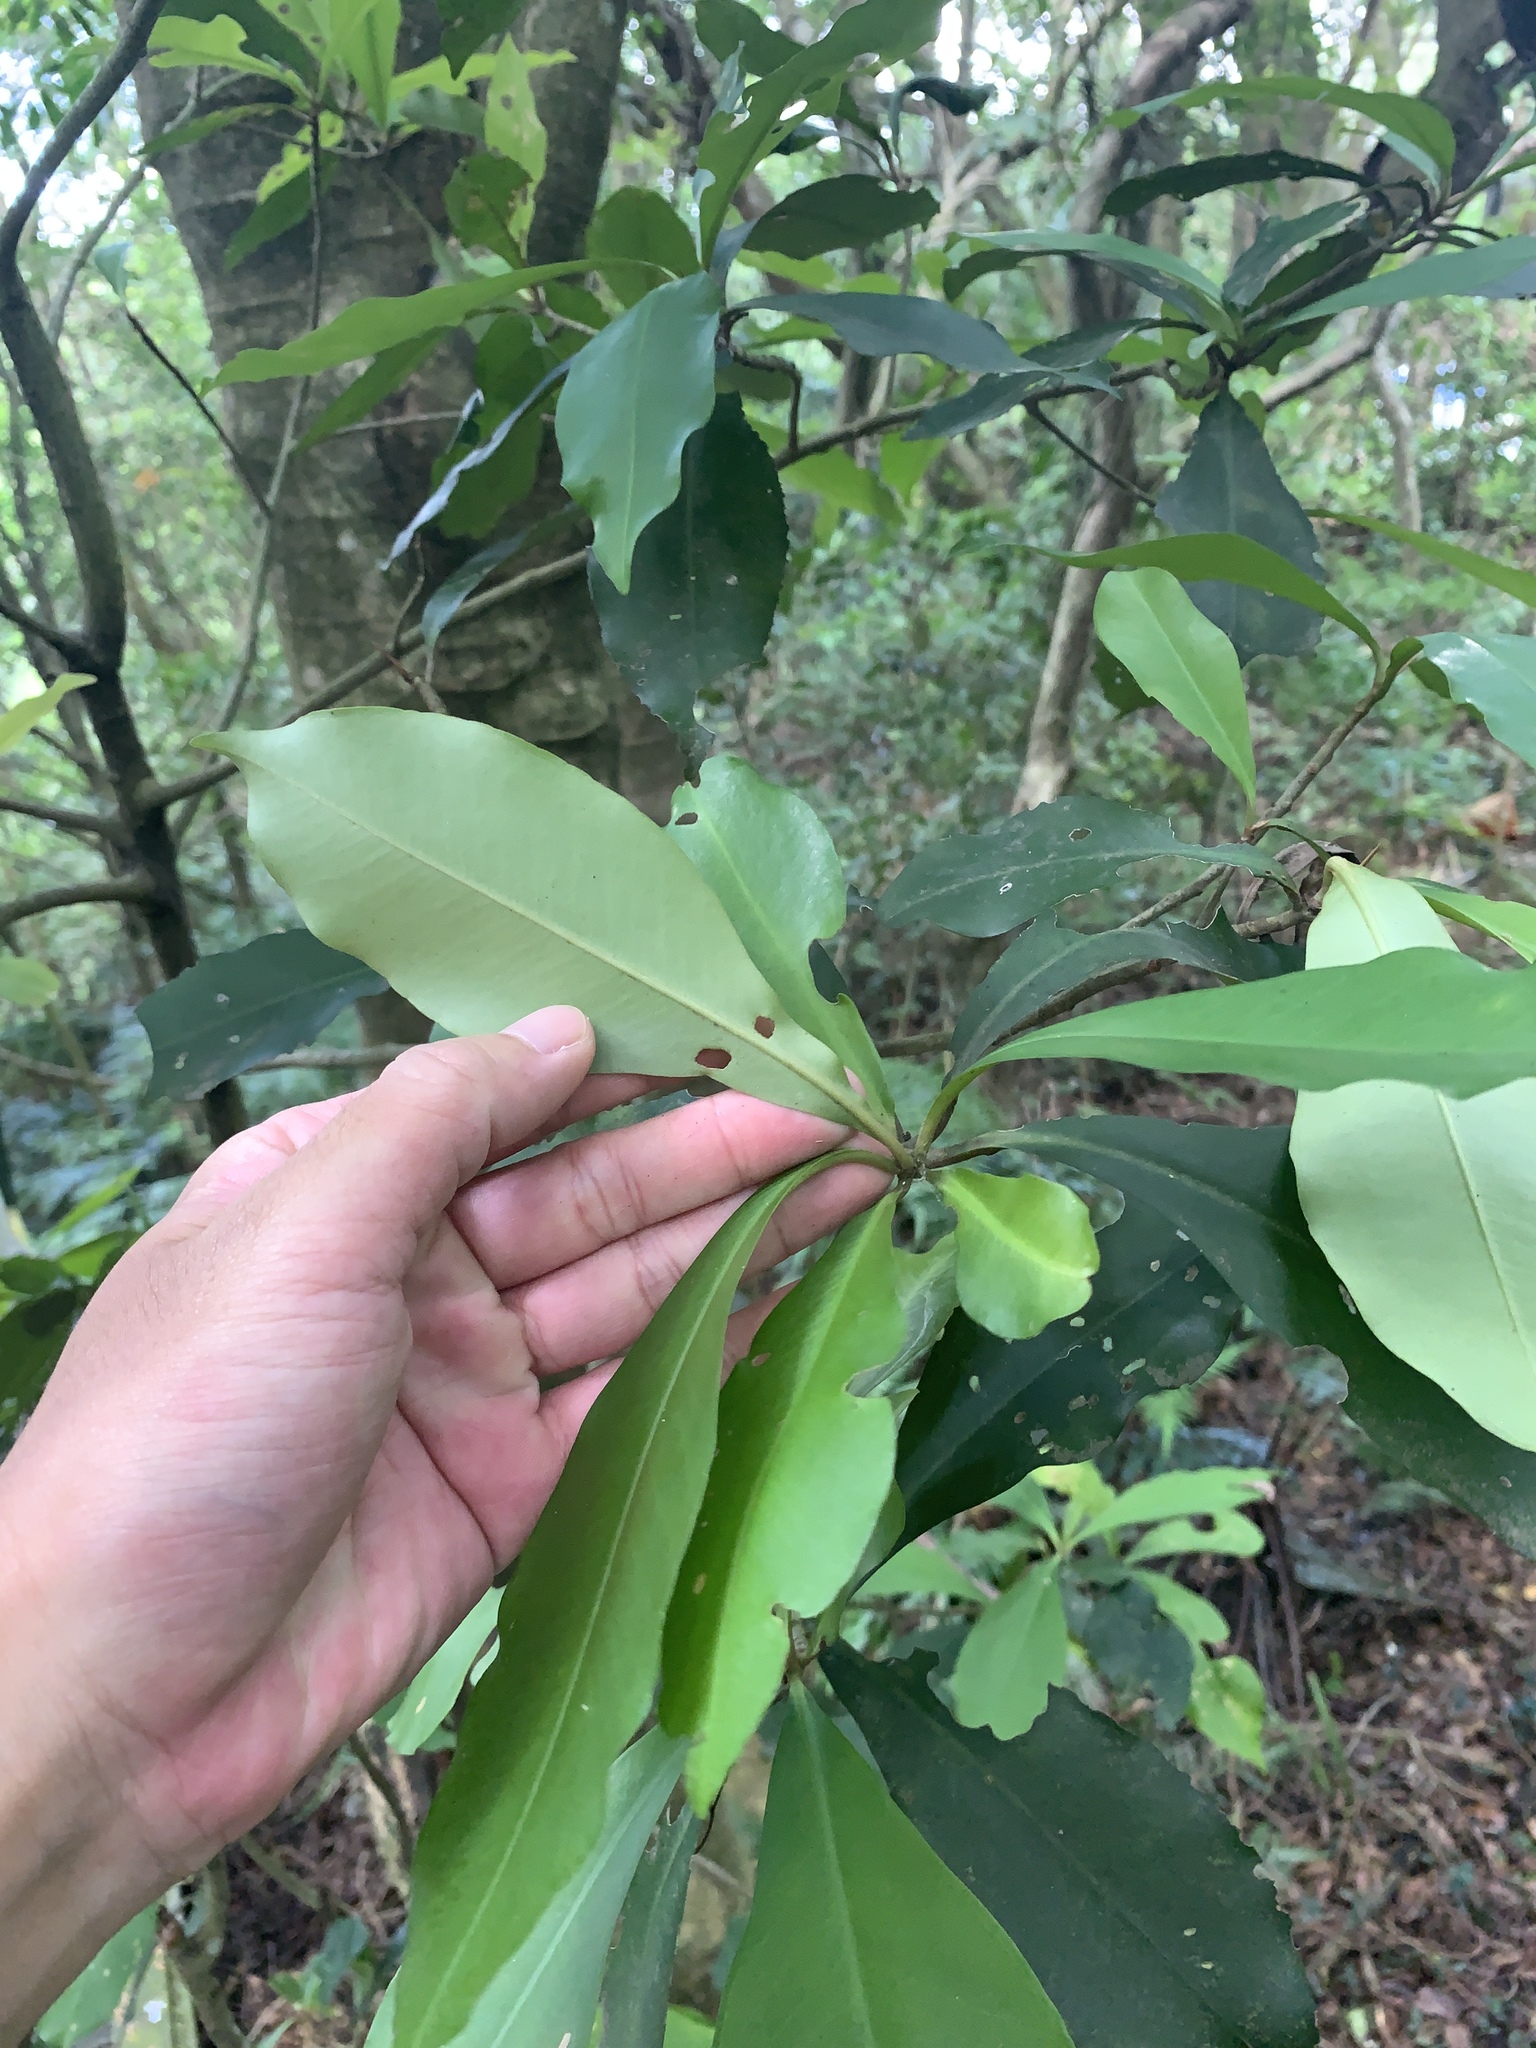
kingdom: Plantae
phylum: Tracheophyta
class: Magnoliopsida
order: Ericales
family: Primulaceae
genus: Ardisia
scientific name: Ardisia sieboldii
